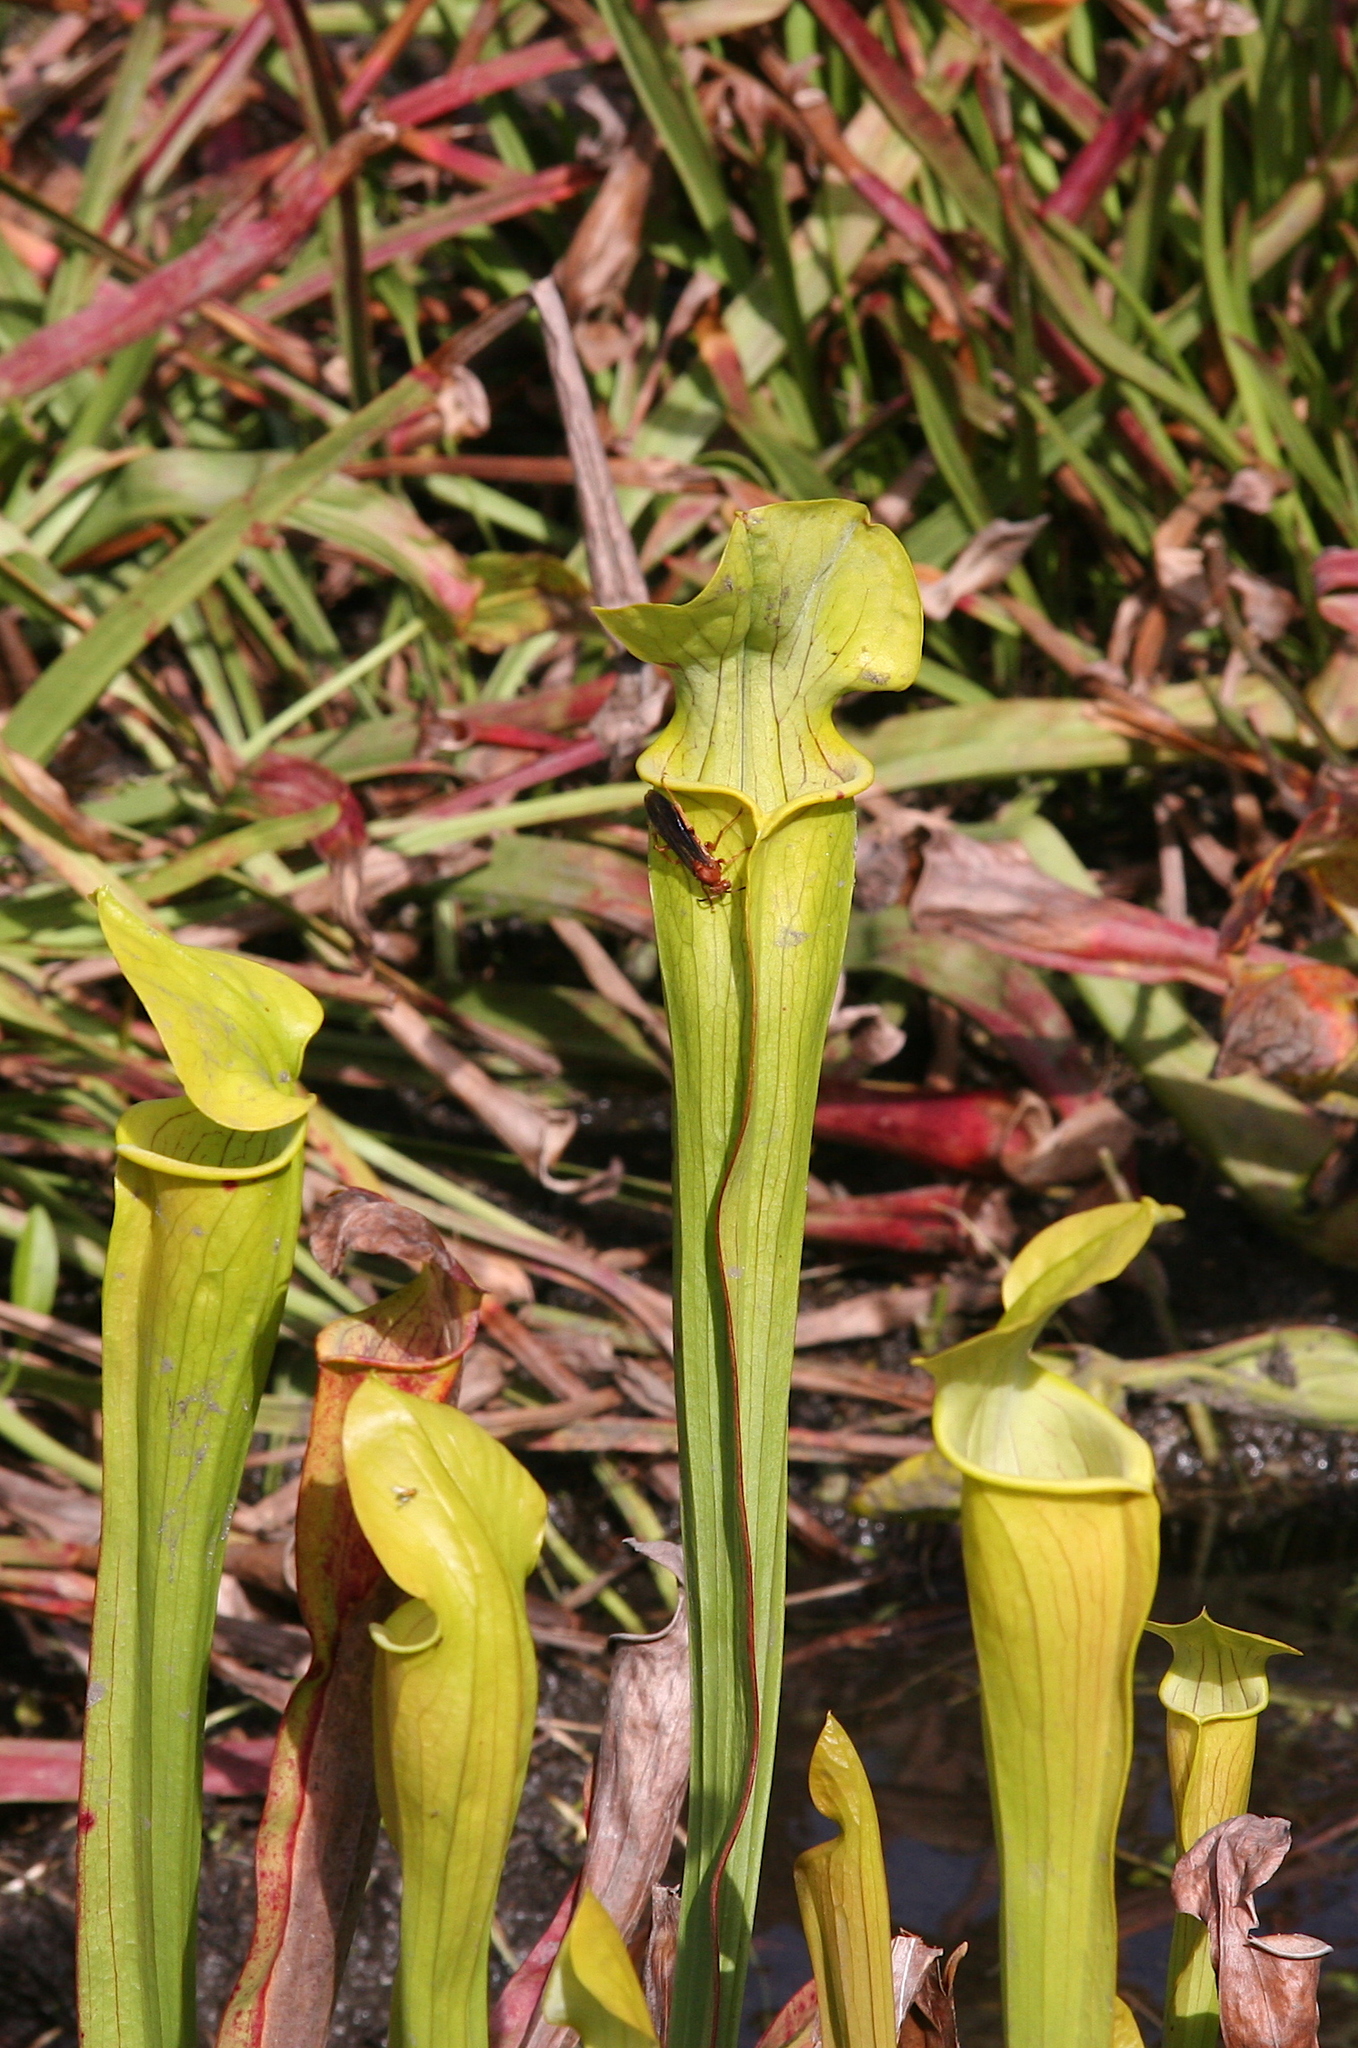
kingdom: Animalia
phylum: Arthropoda
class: Insecta
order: Hymenoptera
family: Vespidae
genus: Fuscopolistes
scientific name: Fuscopolistes
